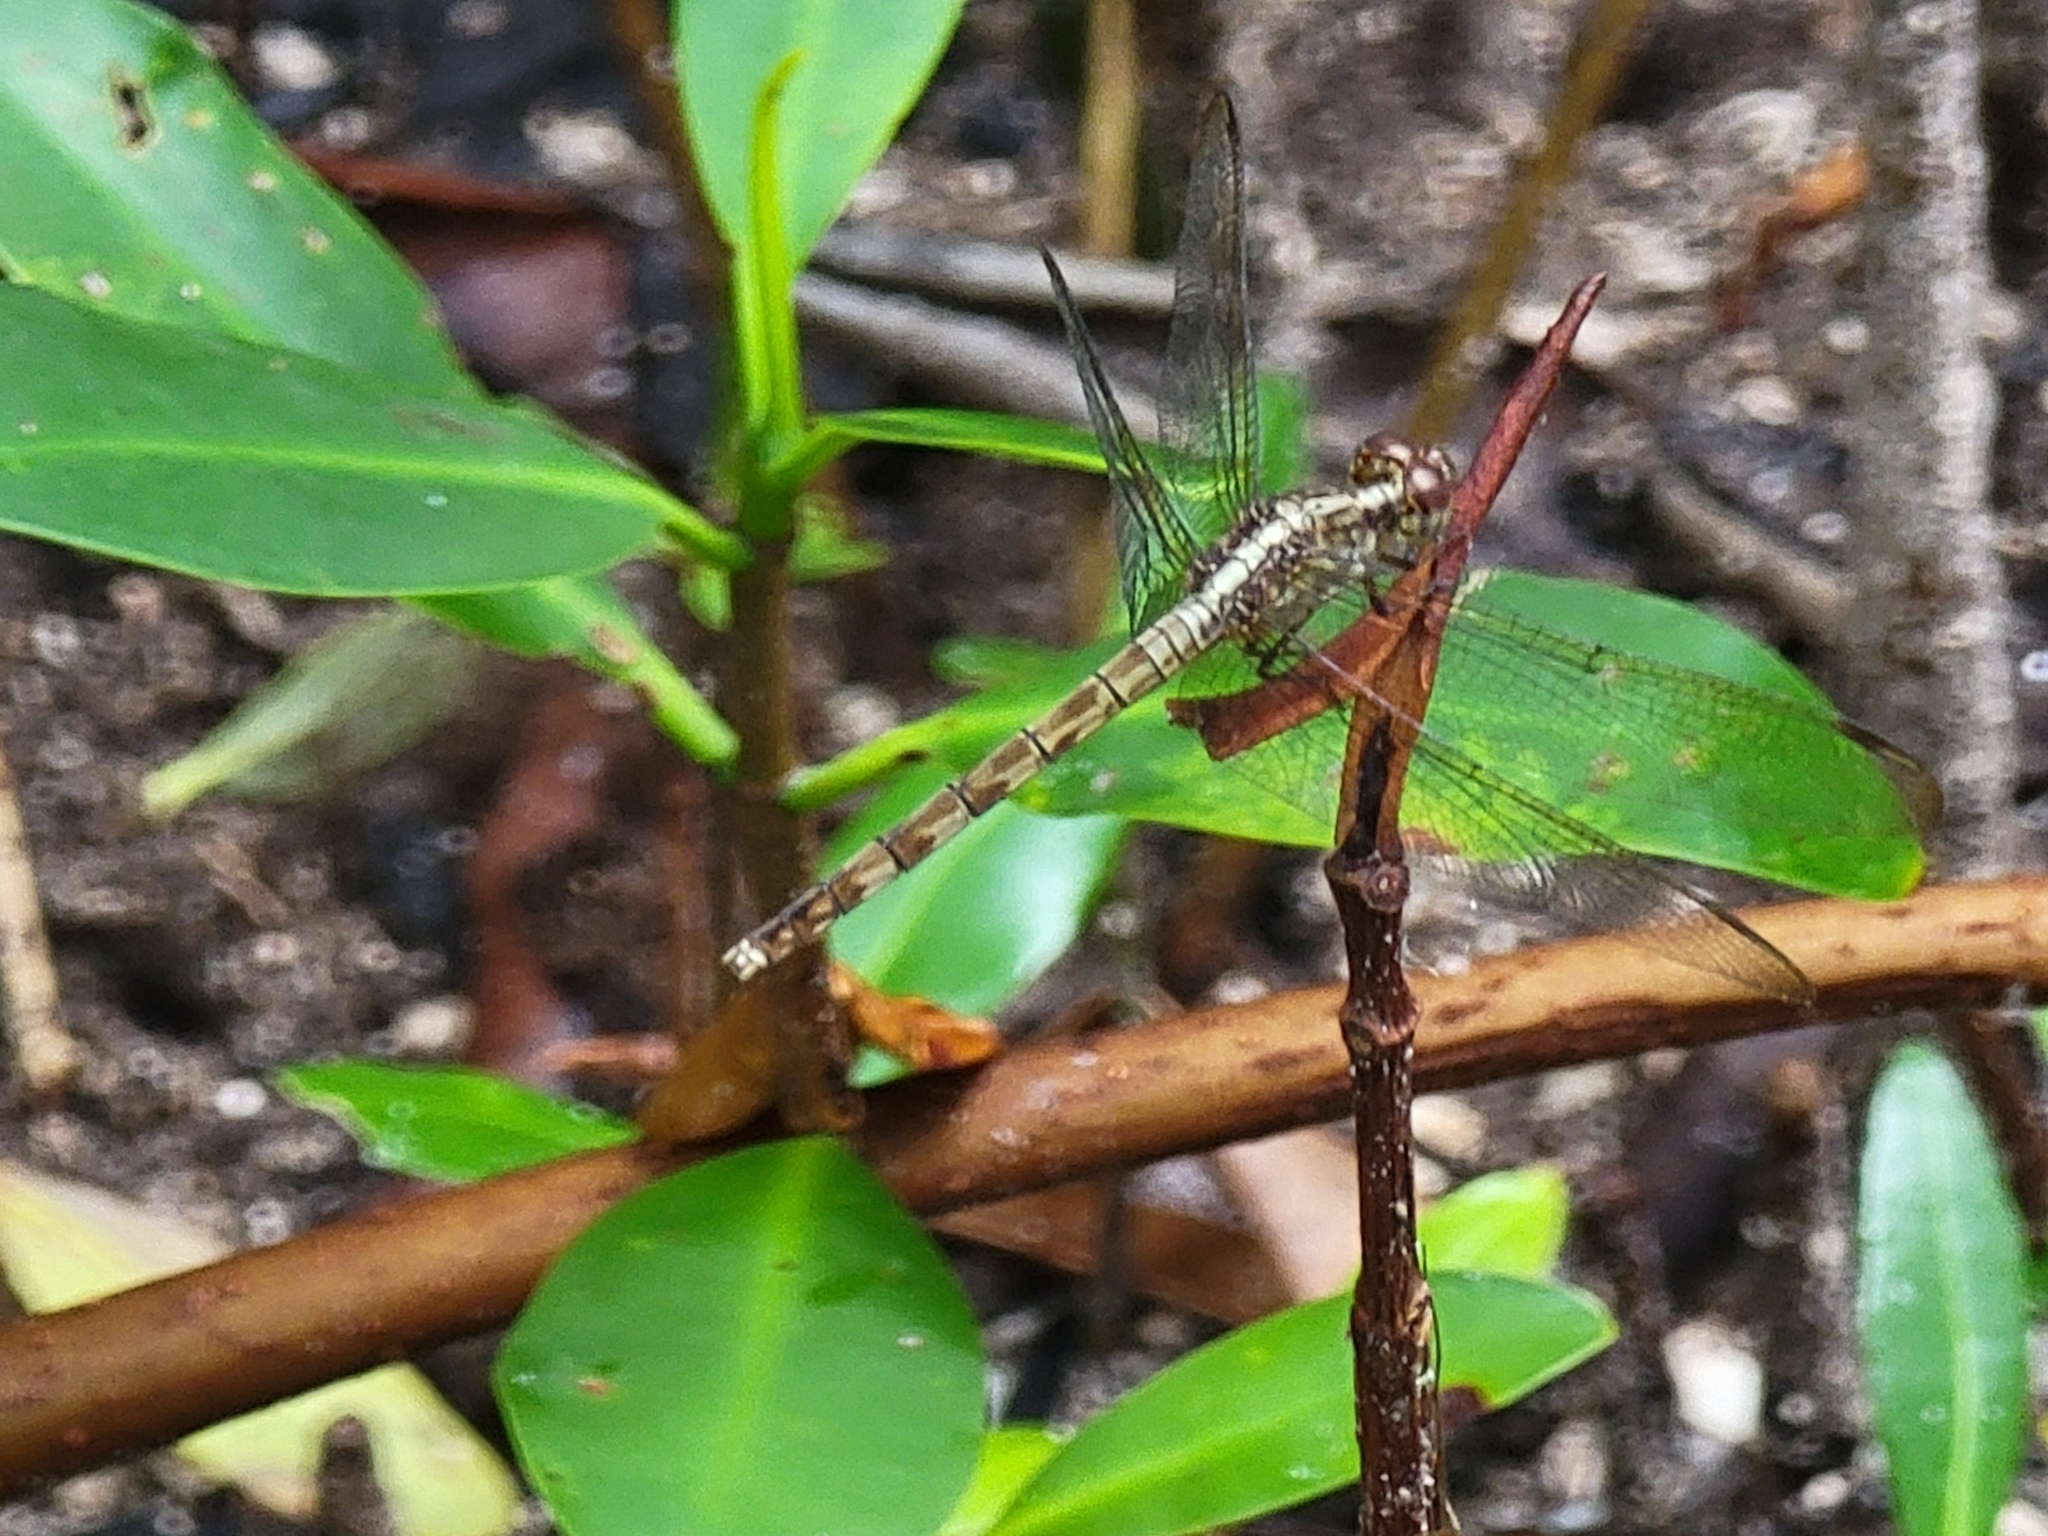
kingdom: Animalia
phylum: Arthropoda
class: Insecta
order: Odonata
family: Libellulidae
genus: Erythrodiplax
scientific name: Erythrodiplax umbrata
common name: Band-winged dragonlet
